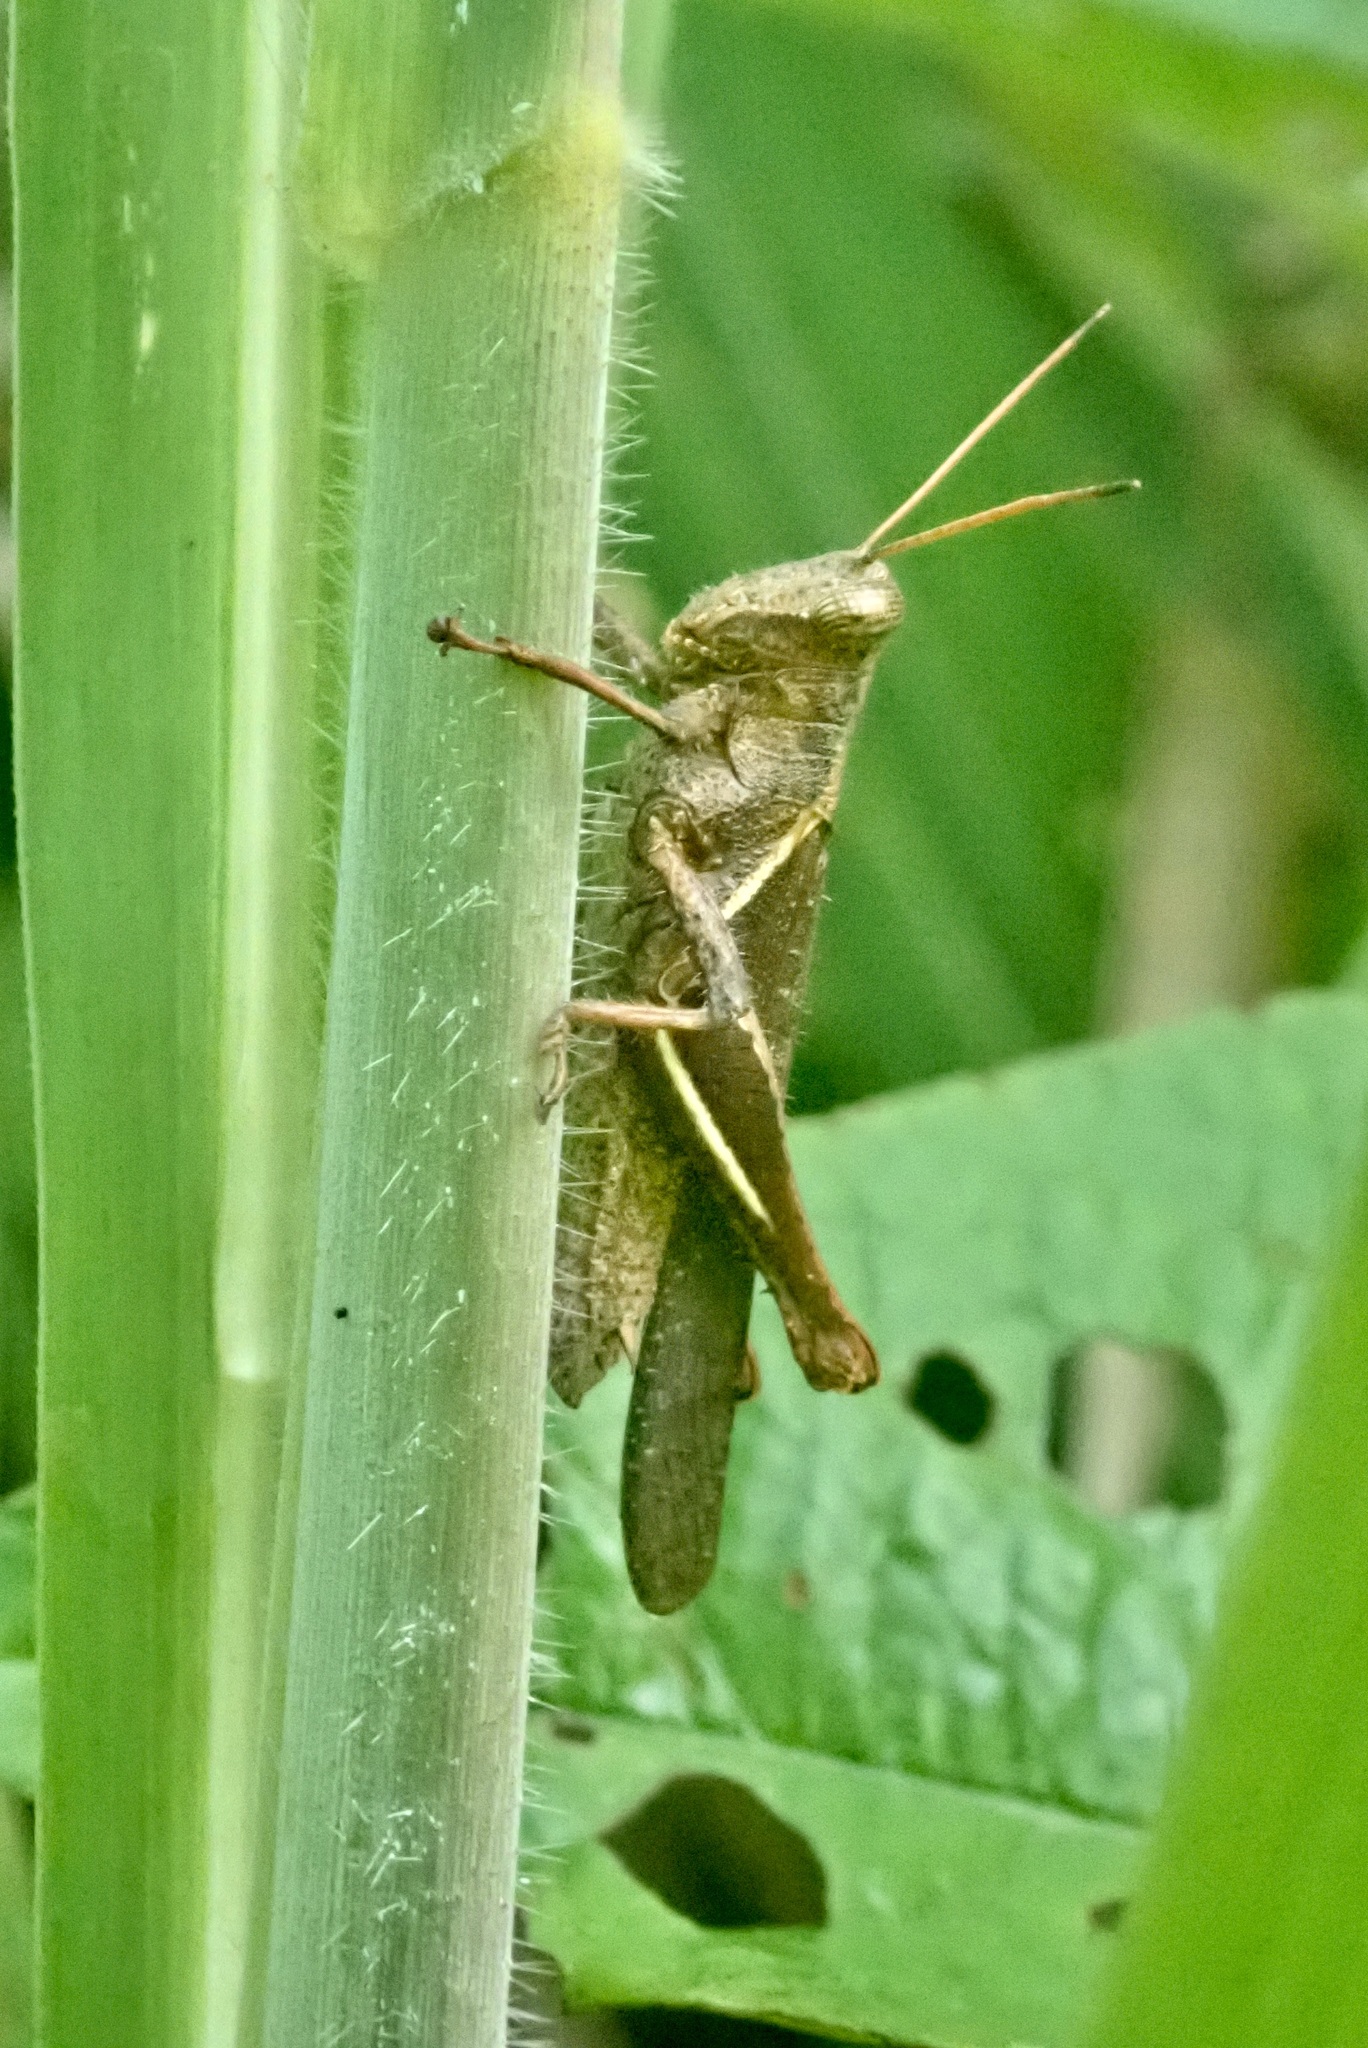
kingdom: Animalia
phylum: Arthropoda
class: Insecta
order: Orthoptera
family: Acrididae
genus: Abracris
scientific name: Abracris flavolineata
